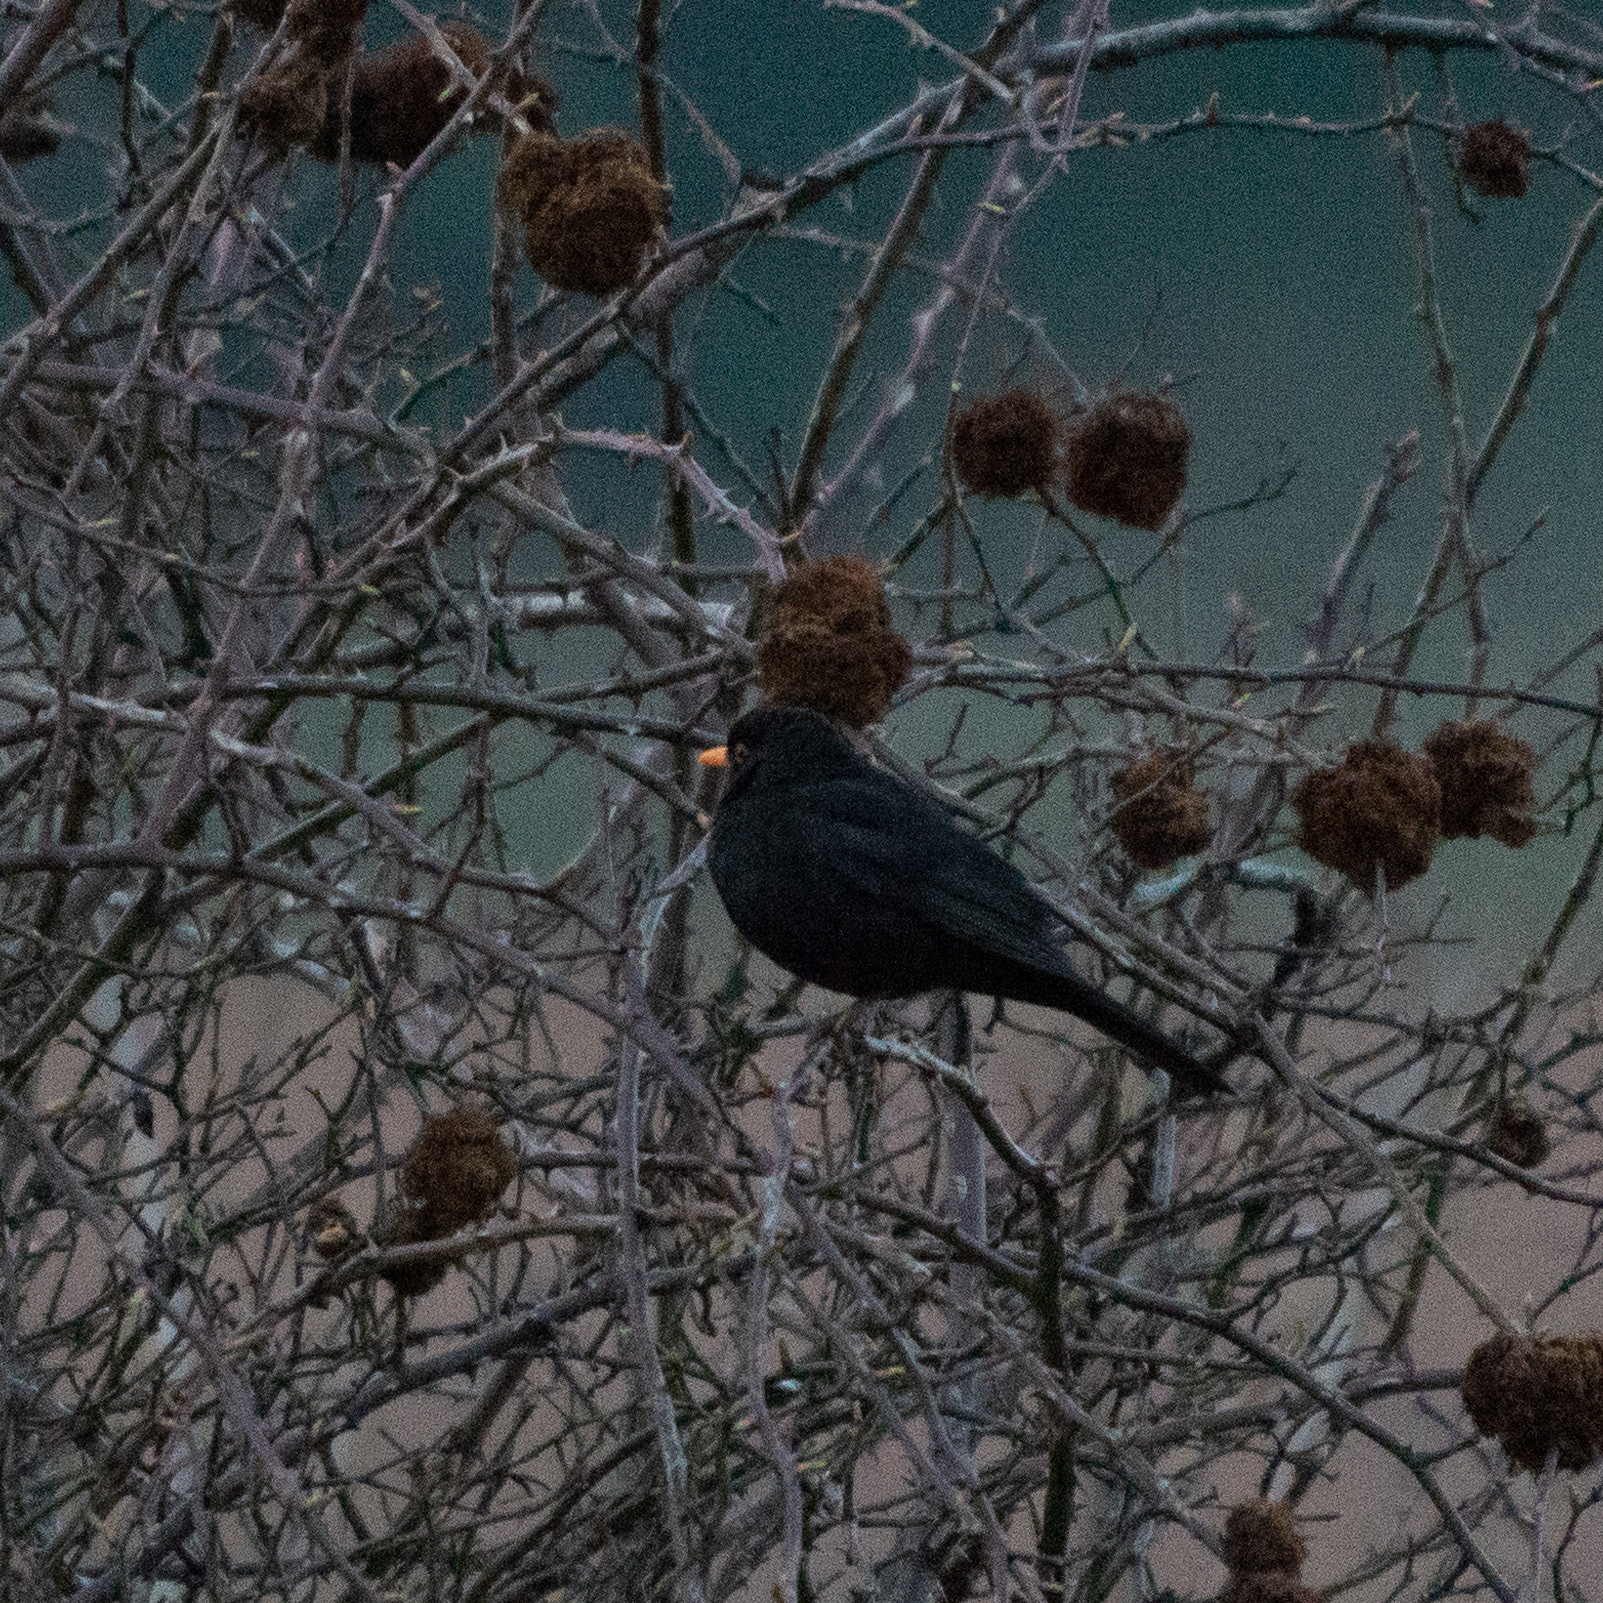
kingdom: Animalia
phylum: Chordata
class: Aves
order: Passeriformes
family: Turdidae
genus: Turdus
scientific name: Turdus merula
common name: Common blackbird
